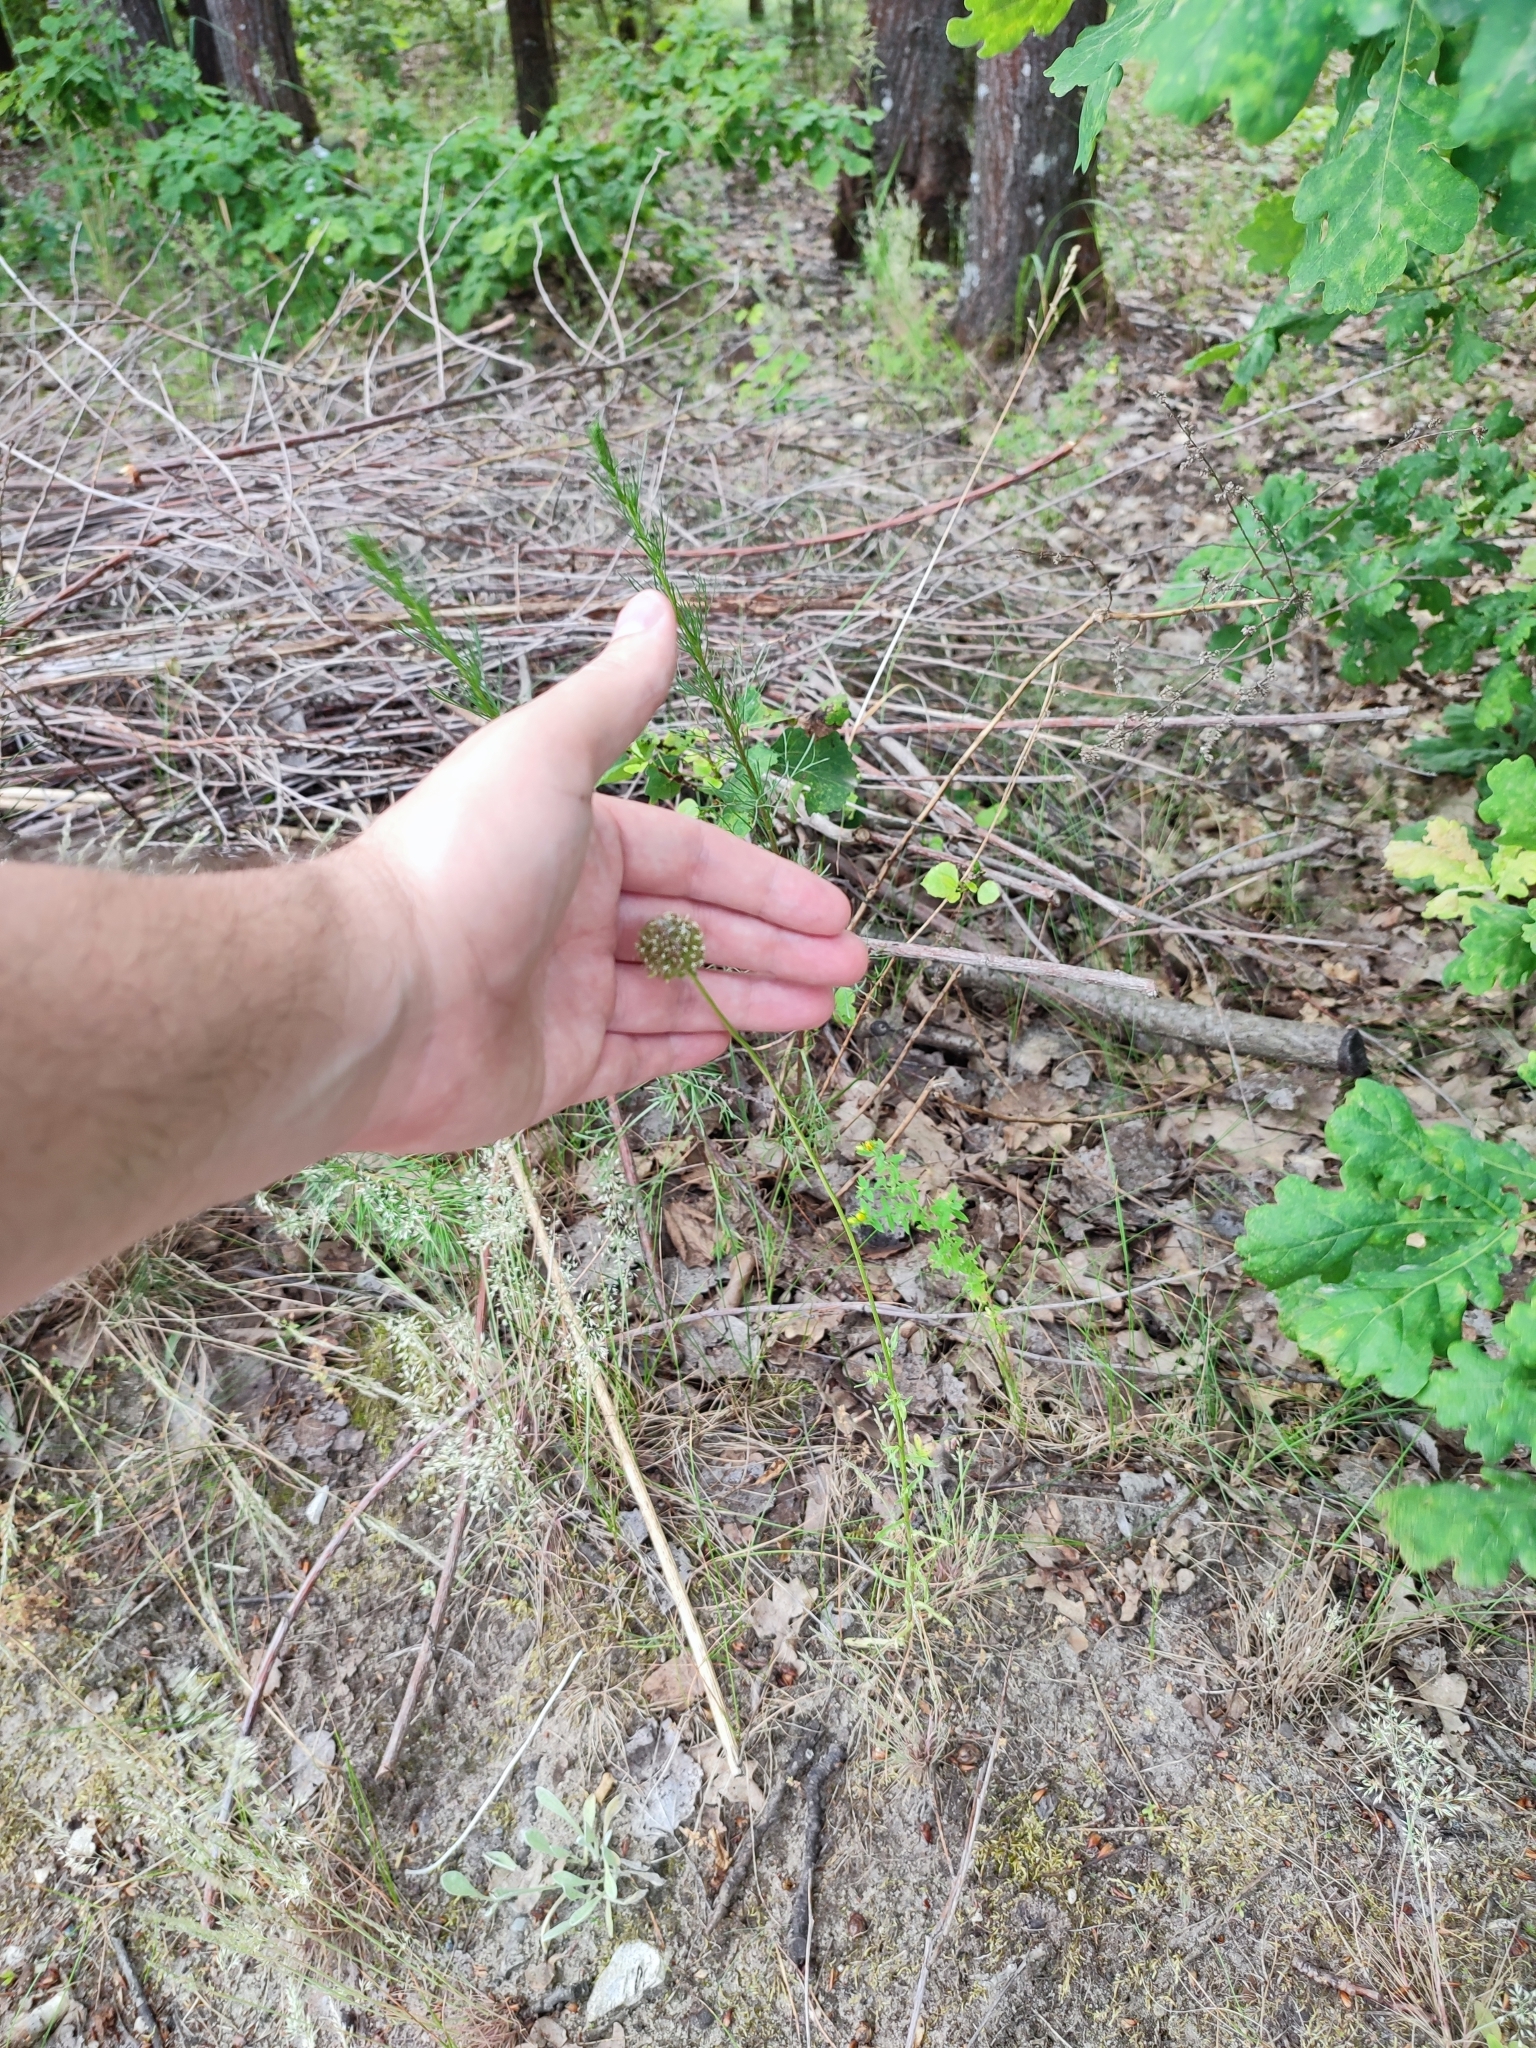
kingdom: Plantae
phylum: Tracheophyta
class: Magnoliopsida
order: Asterales
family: Campanulaceae
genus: Jasione
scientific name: Jasione montana
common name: Sheep's-bit
